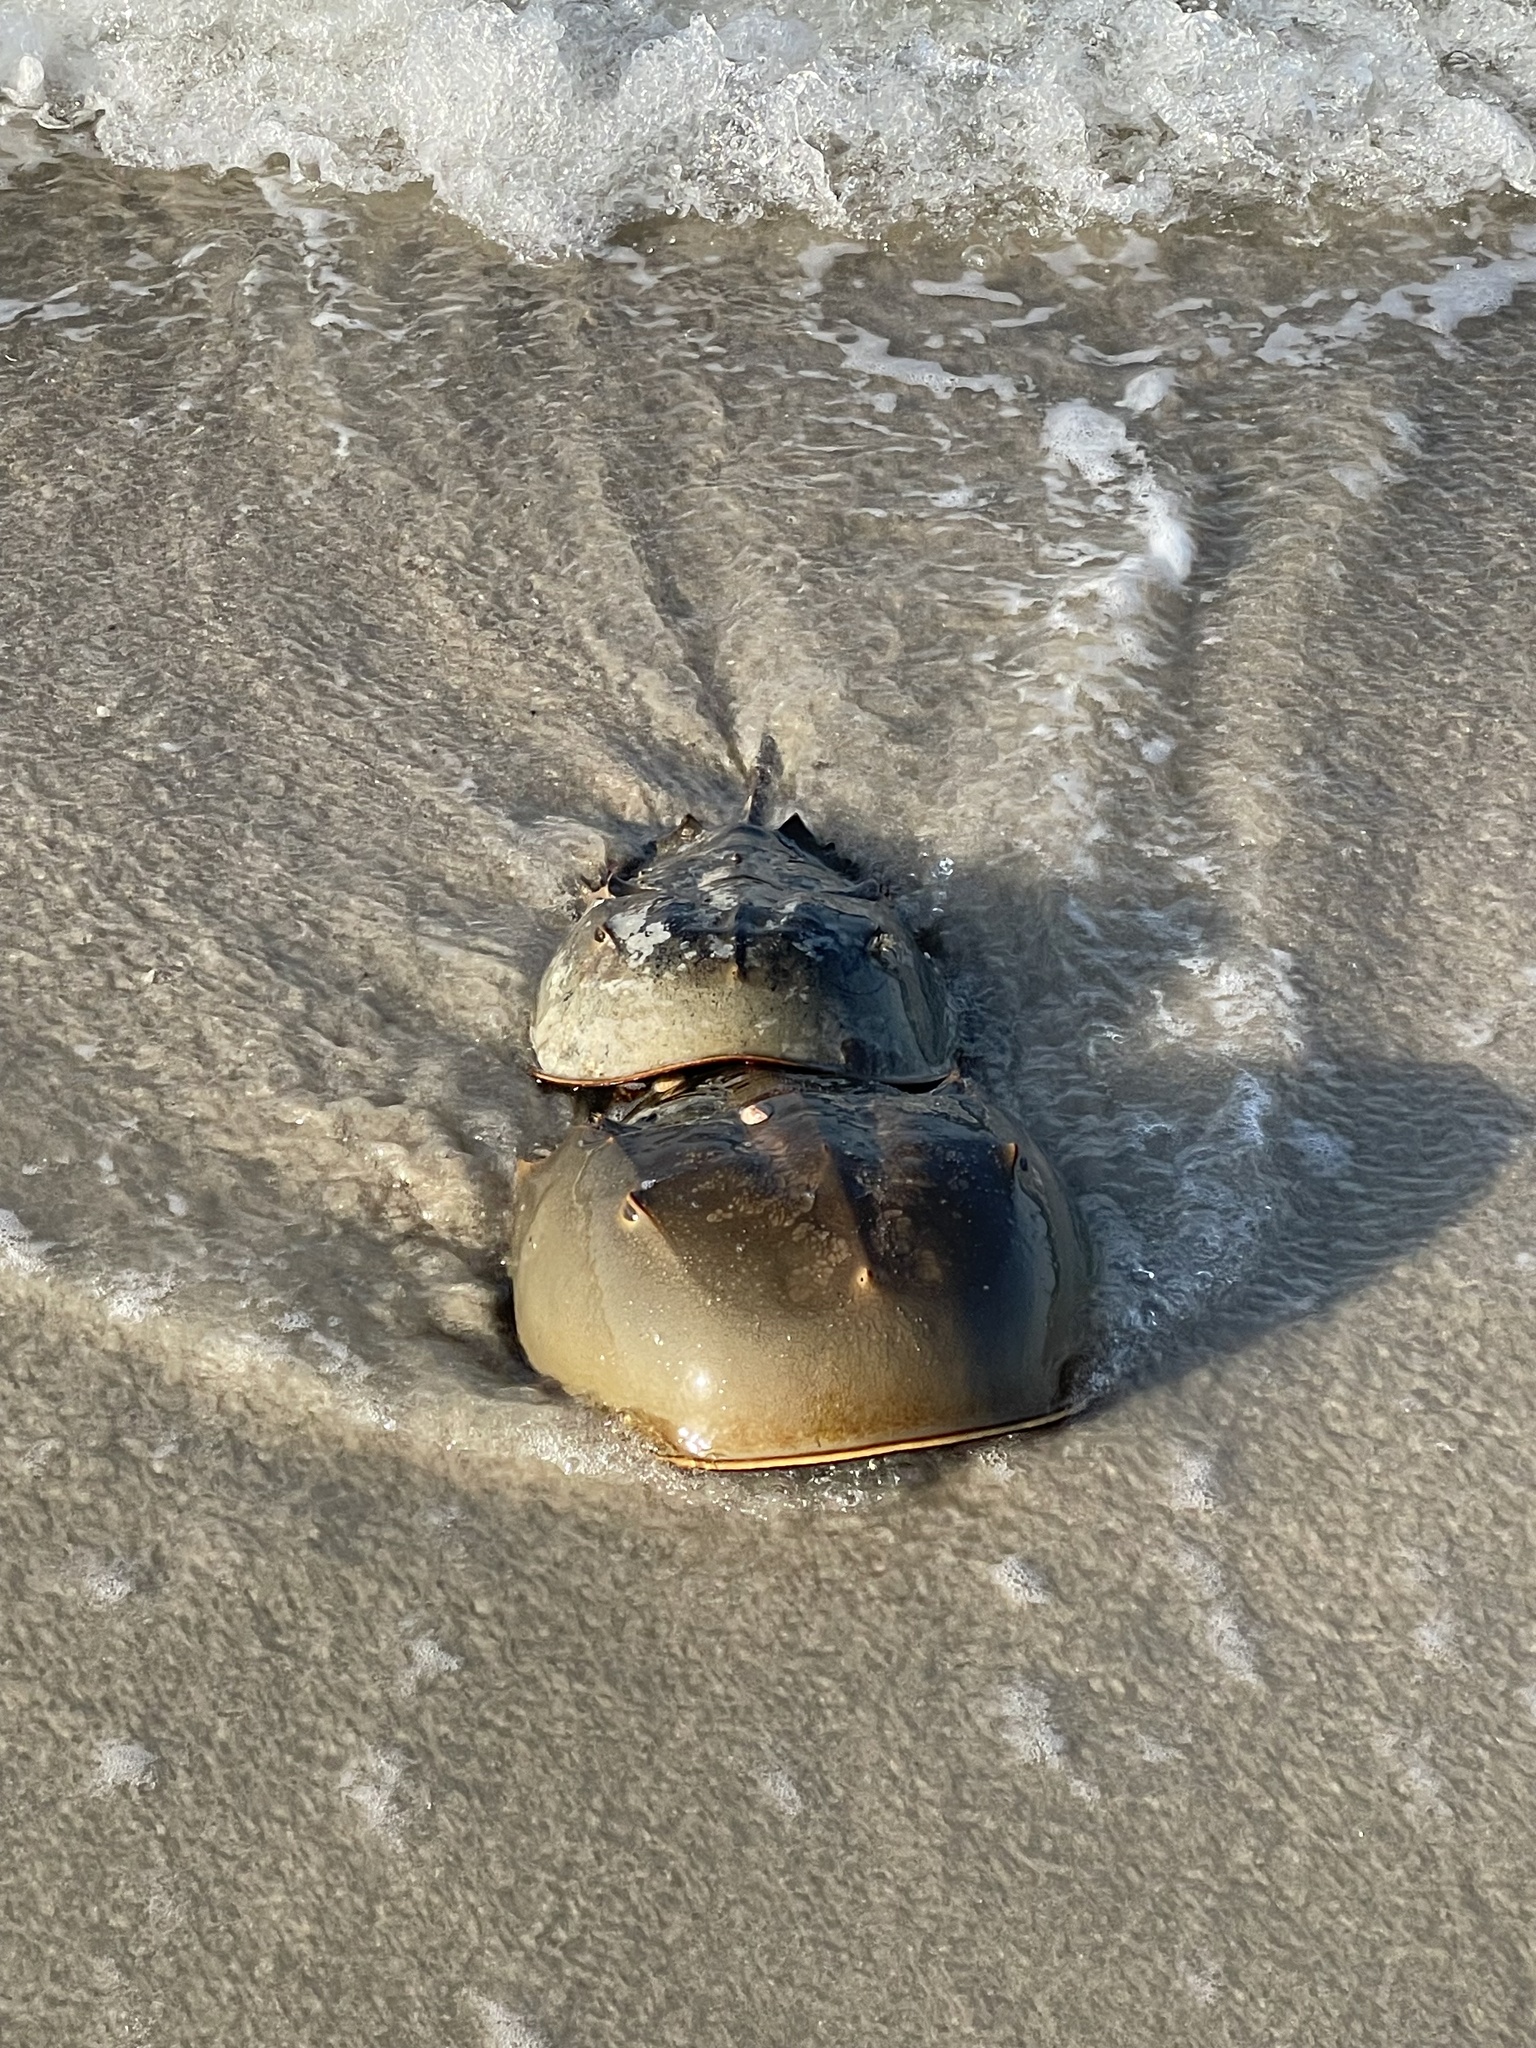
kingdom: Animalia
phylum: Arthropoda
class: Merostomata
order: Xiphosurida
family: Limulidae
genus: Limulus
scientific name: Limulus polyphemus
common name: Horseshoe crab
